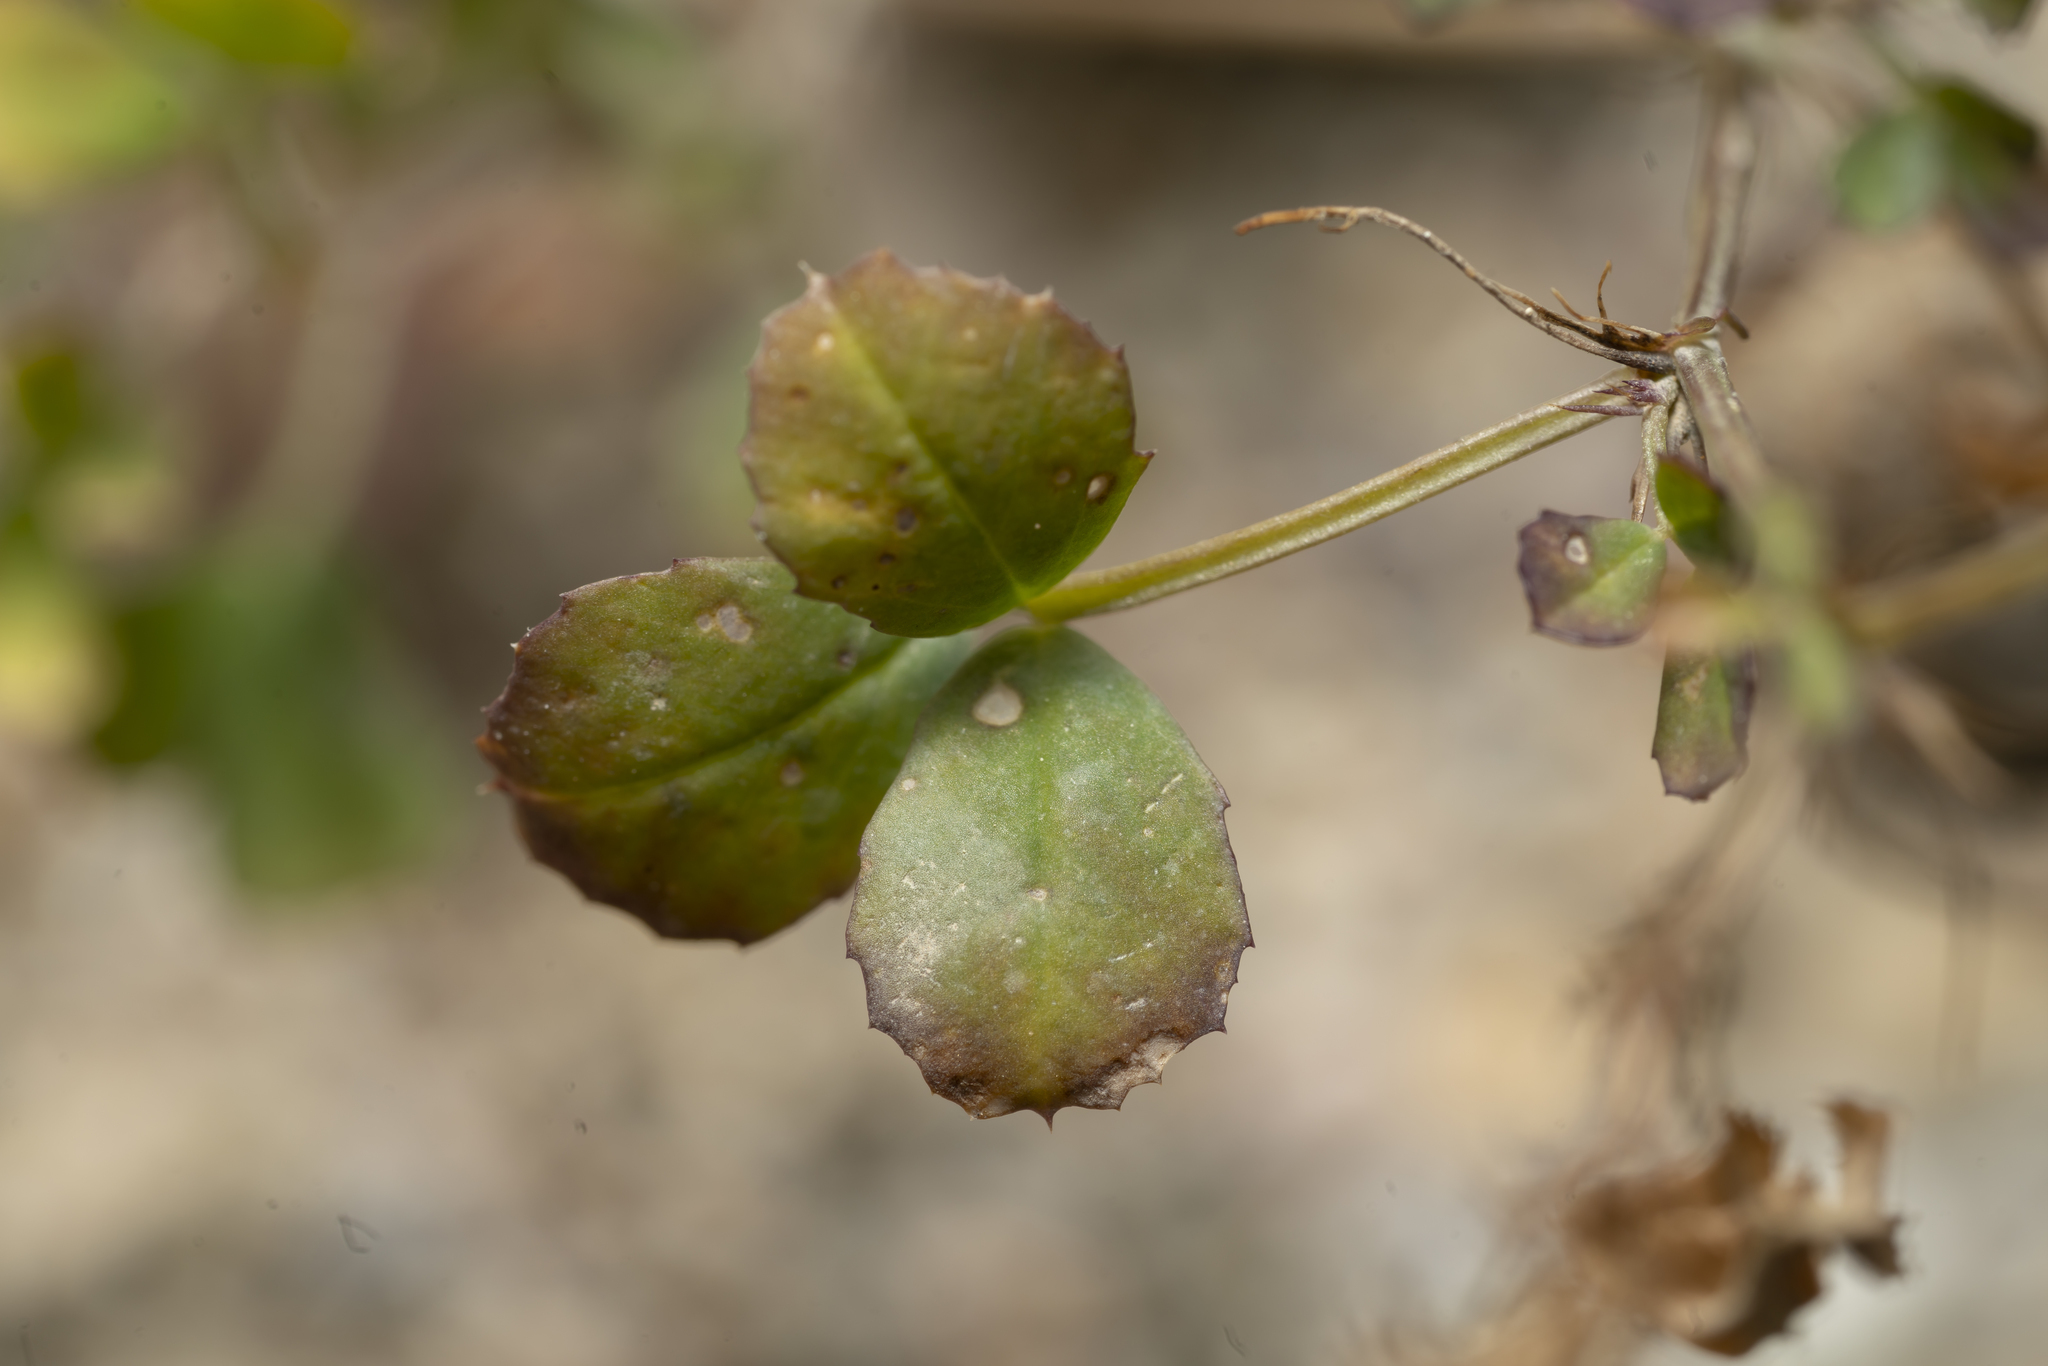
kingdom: Plantae
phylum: Tracheophyta
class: Magnoliopsida
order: Fabales
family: Fabaceae
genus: Medicago
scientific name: Medicago orbicularis
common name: Button medick
